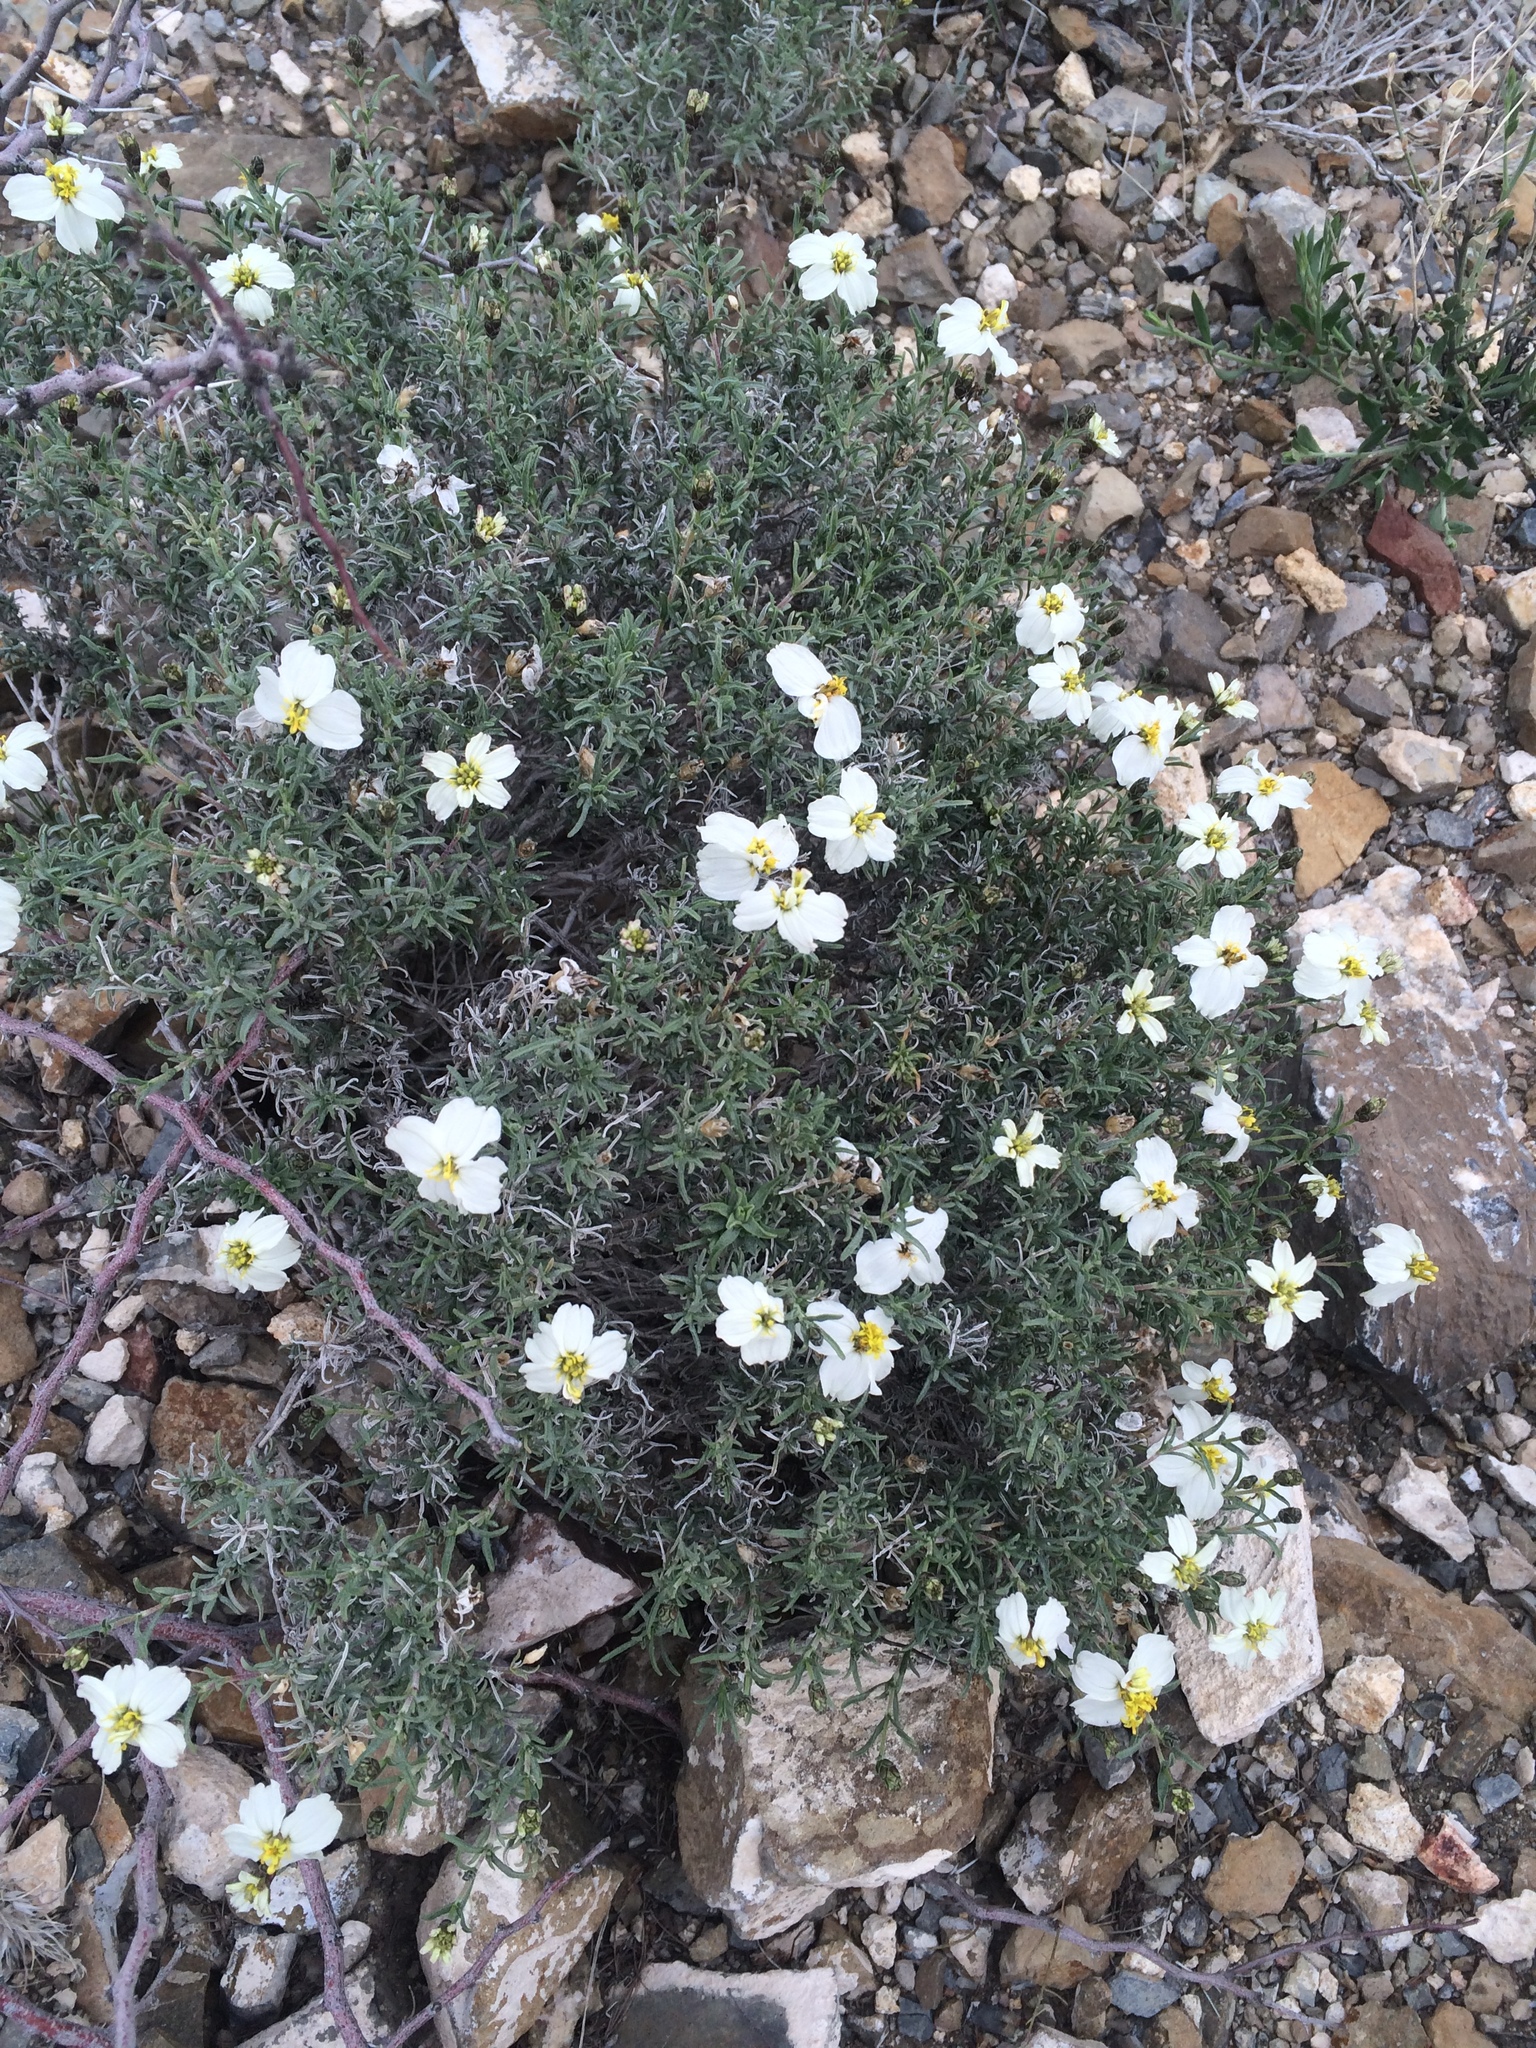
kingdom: Plantae
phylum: Tracheophyta
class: Magnoliopsida
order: Asterales
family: Asteraceae
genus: Zinnia
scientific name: Zinnia acerosa
